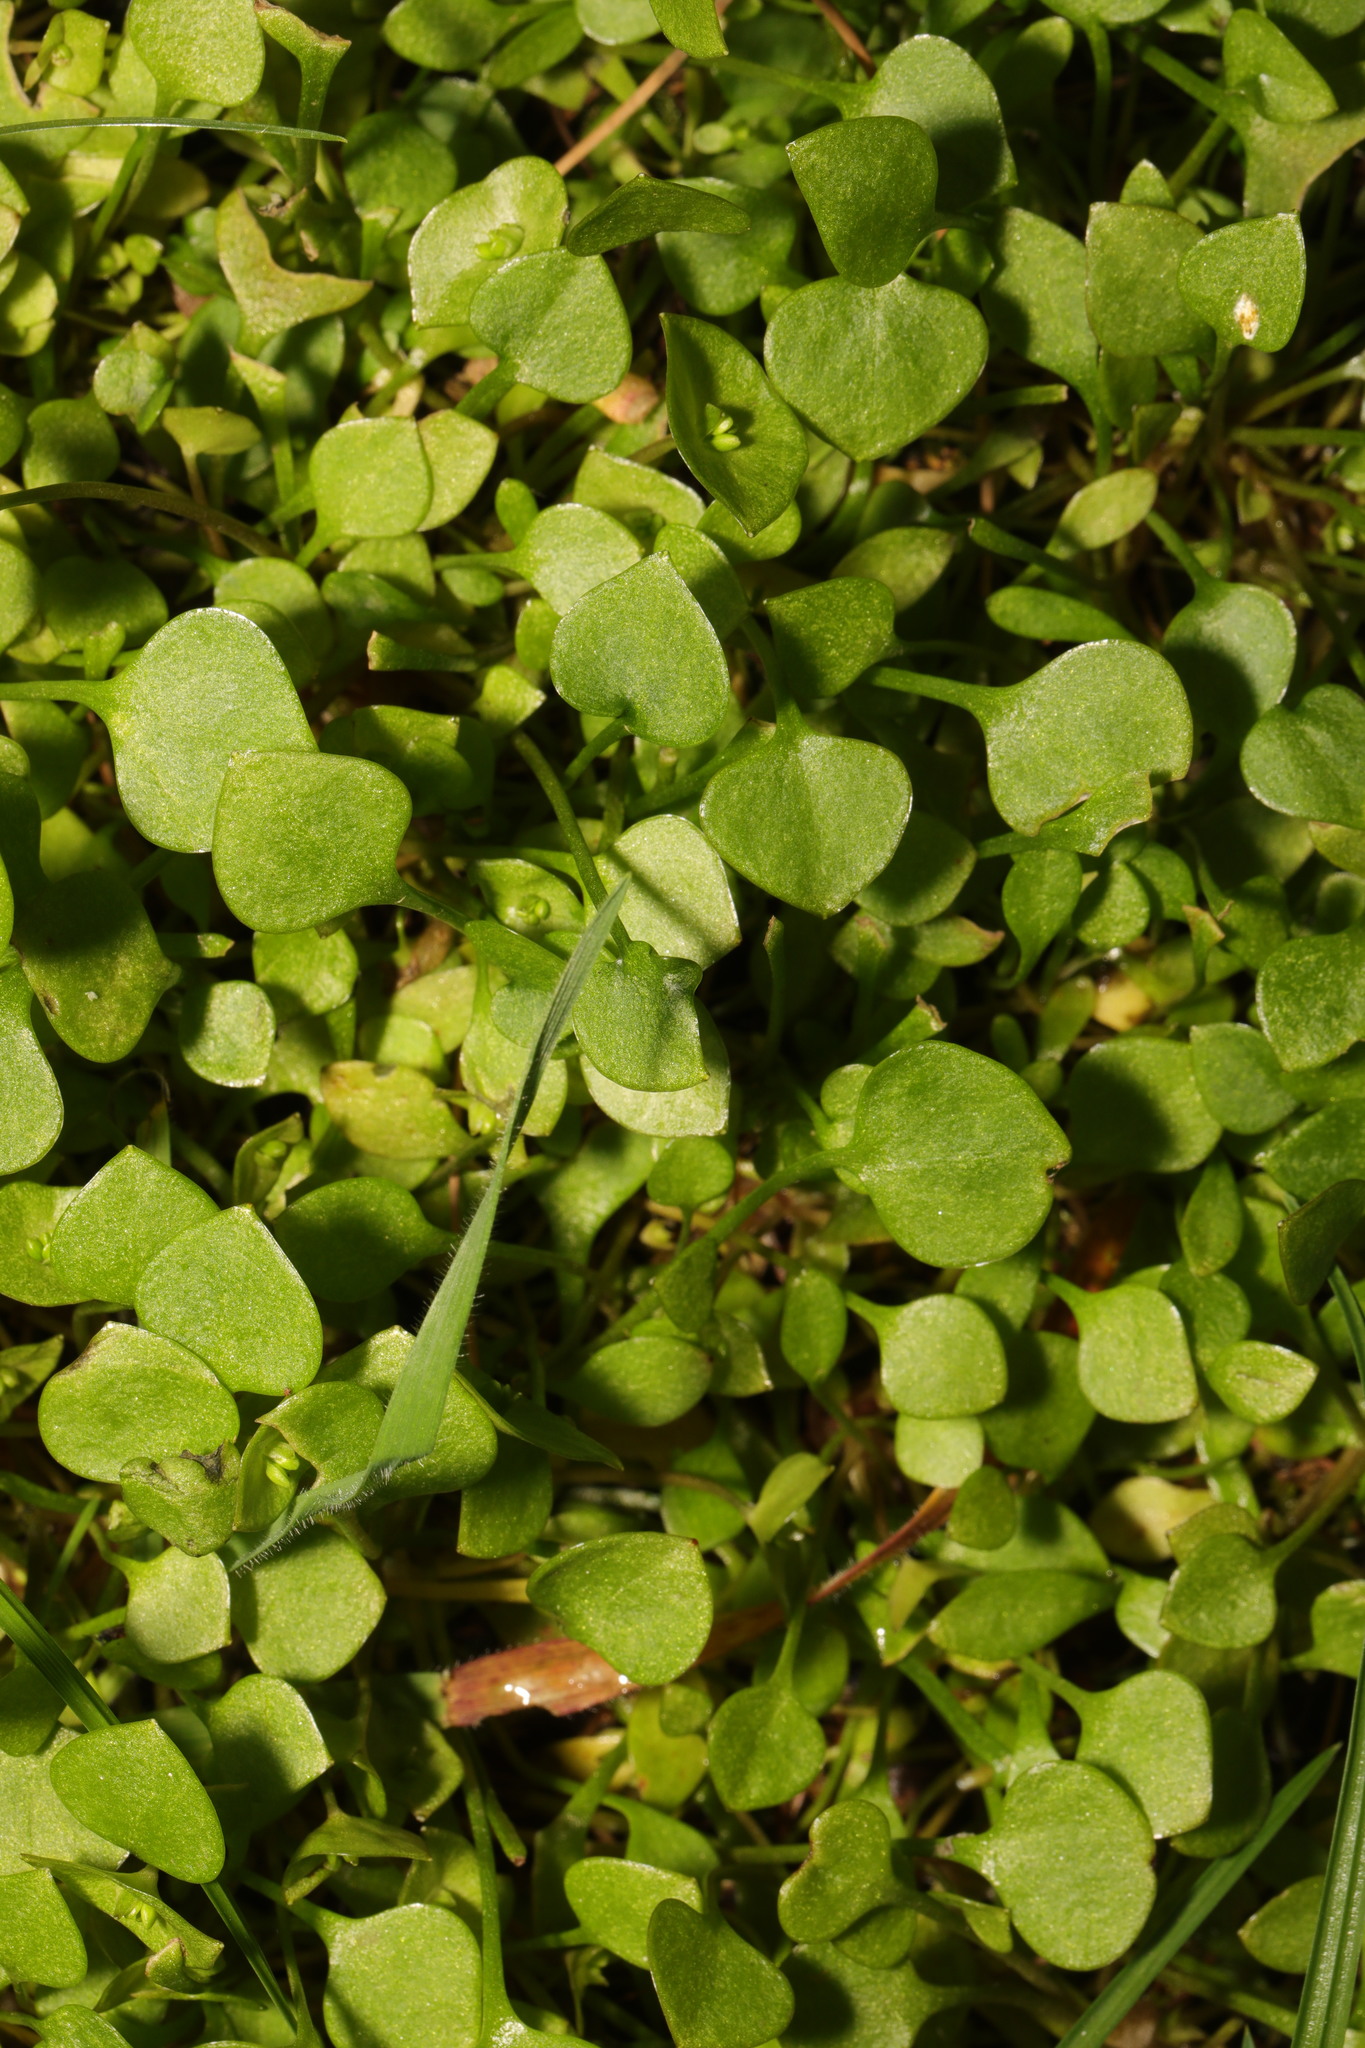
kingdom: Plantae
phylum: Tracheophyta
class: Magnoliopsida
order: Caryophyllales
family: Montiaceae
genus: Claytonia
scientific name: Claytonia perfoliata
